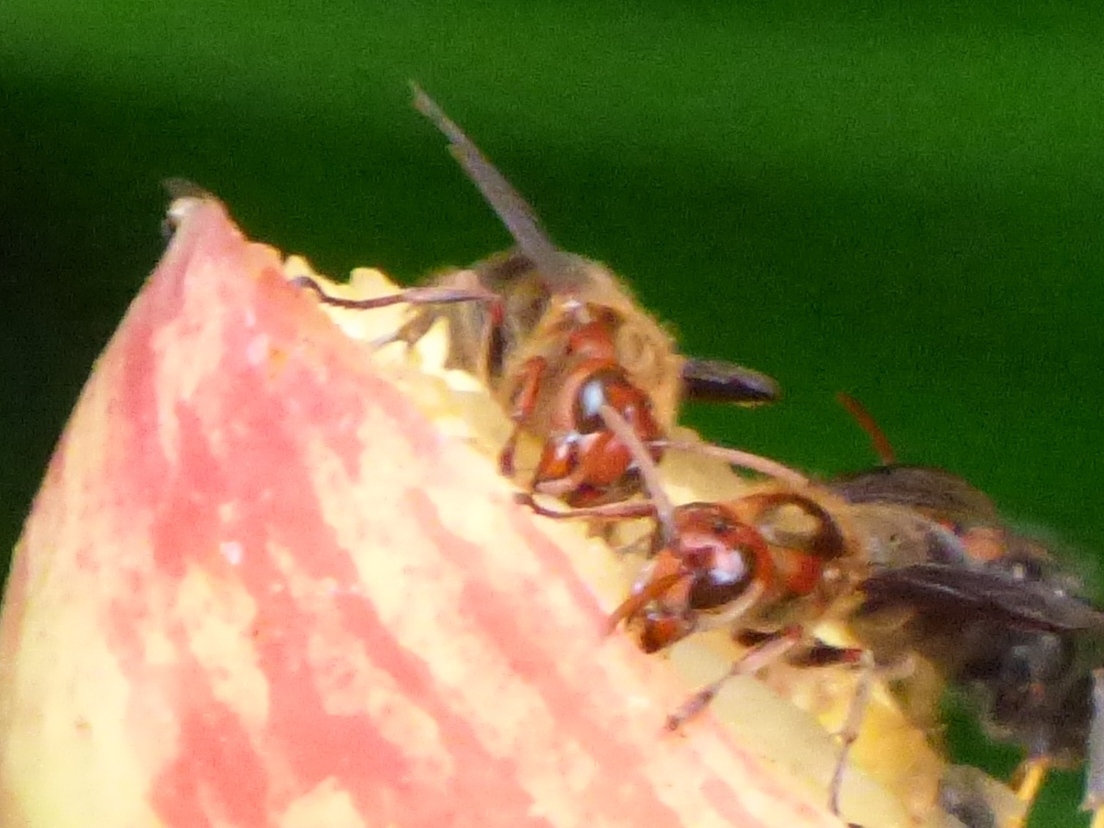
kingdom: Animalia
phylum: Arthropoda
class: Insecta
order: Hymenoptera
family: Vespidae
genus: Vespa
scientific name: Vespa basalis
